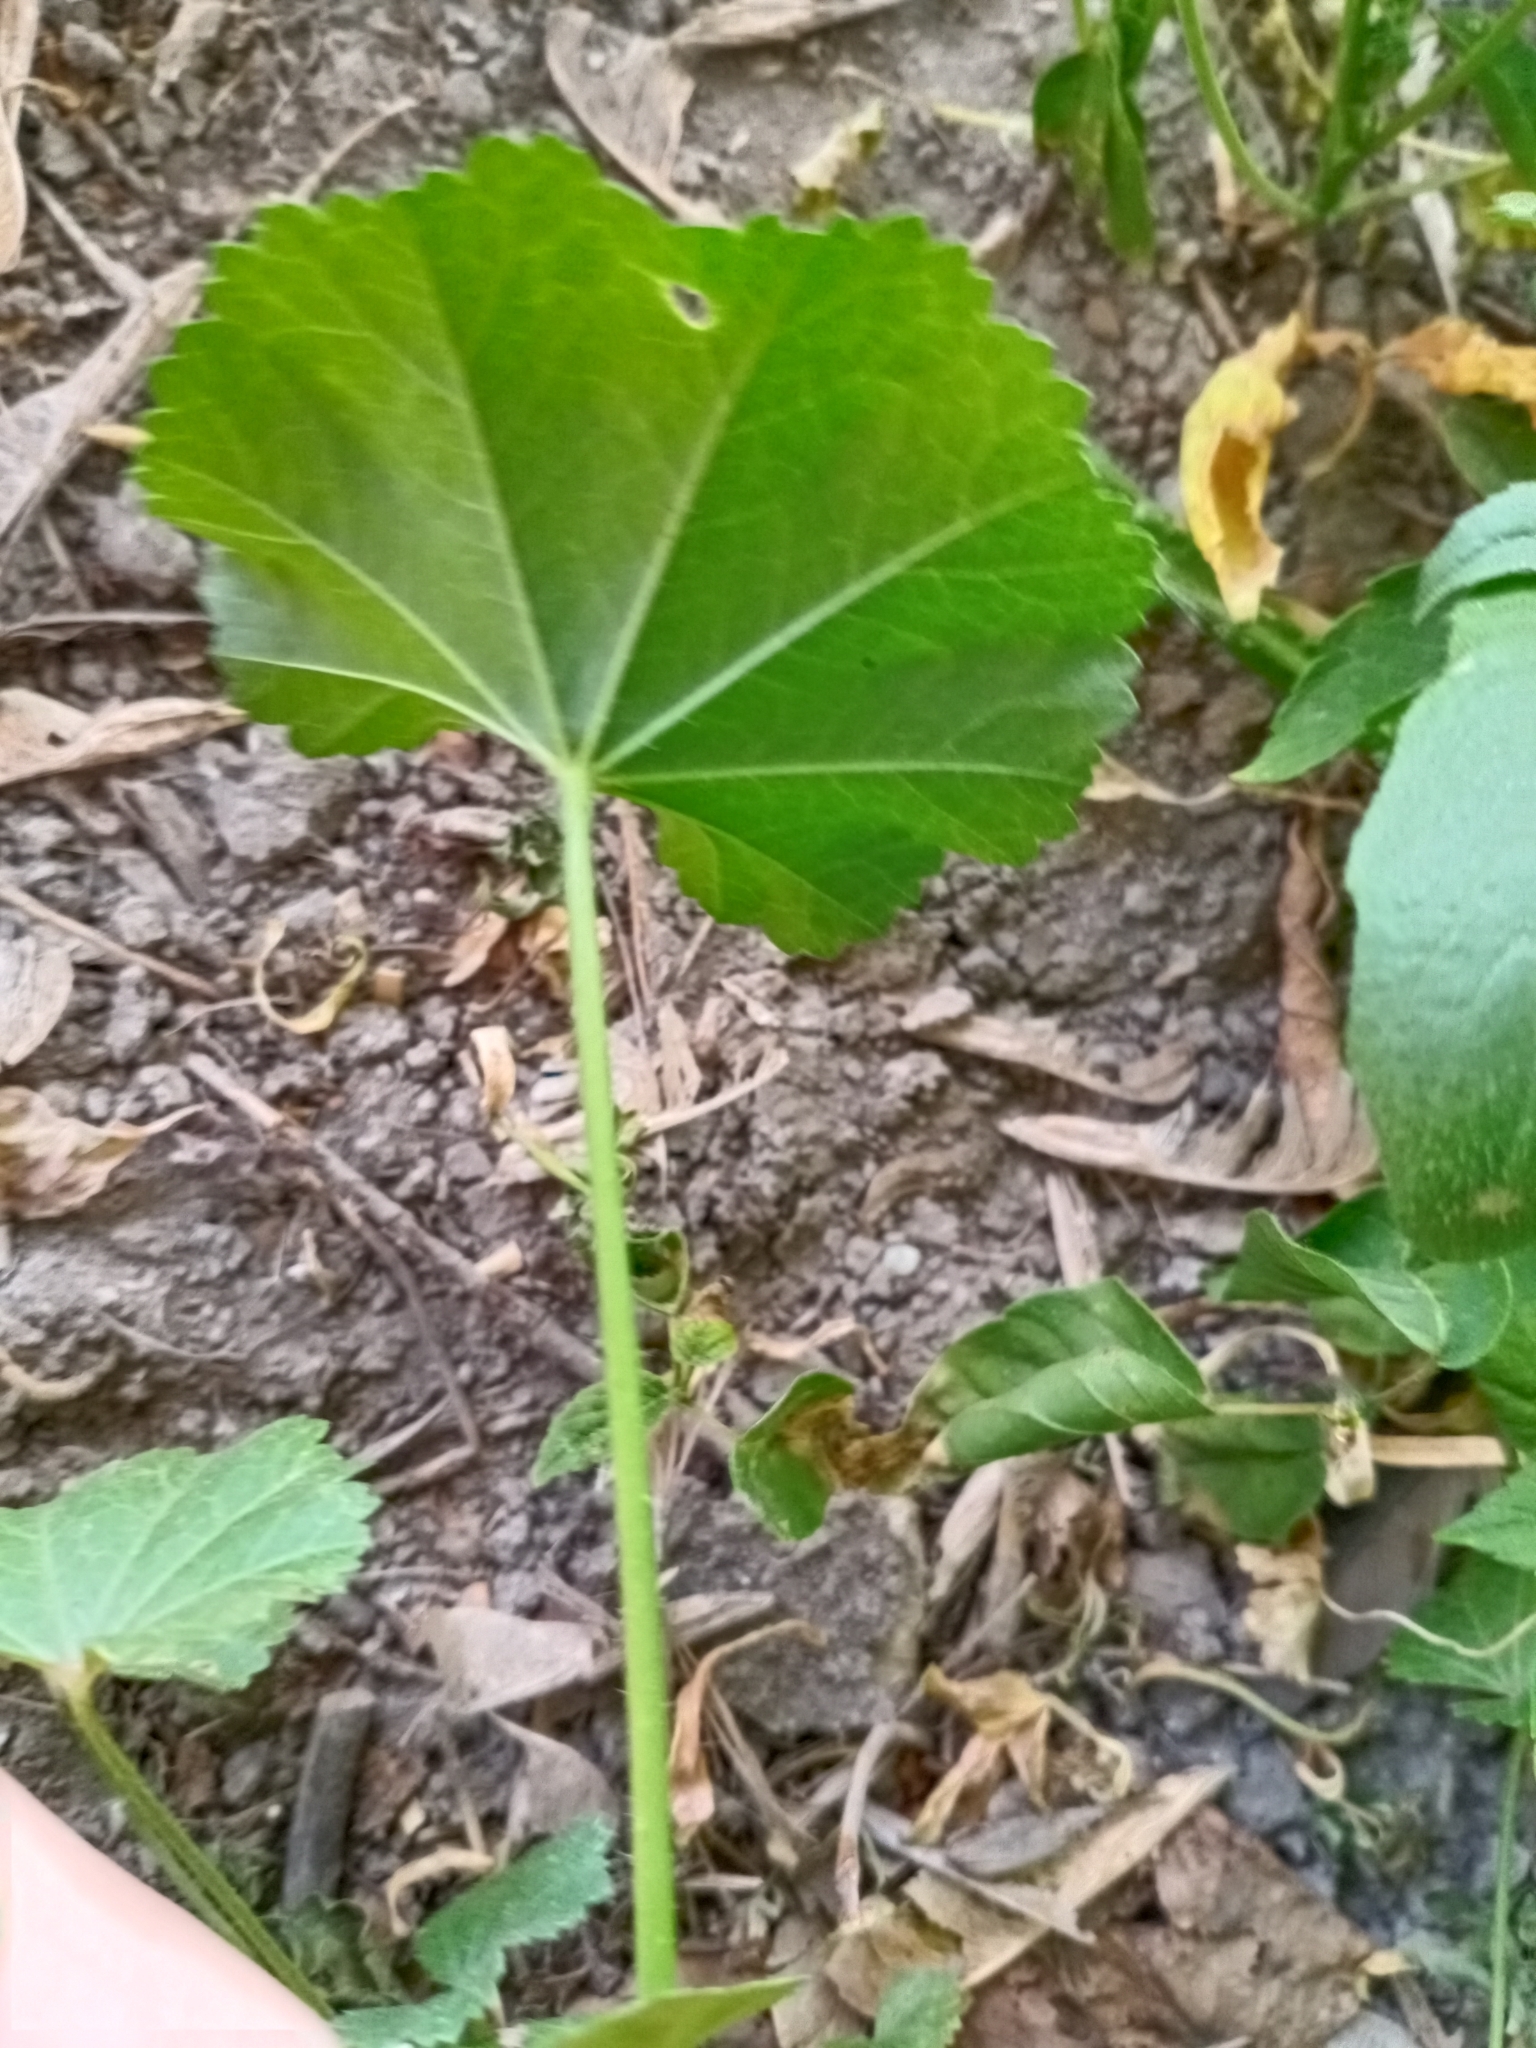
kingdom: Plantae
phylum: Tracheophyta
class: Magnoliopsida
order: Malvales
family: Malvaceae
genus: Malva
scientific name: Malva pusilla
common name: Small mallow
